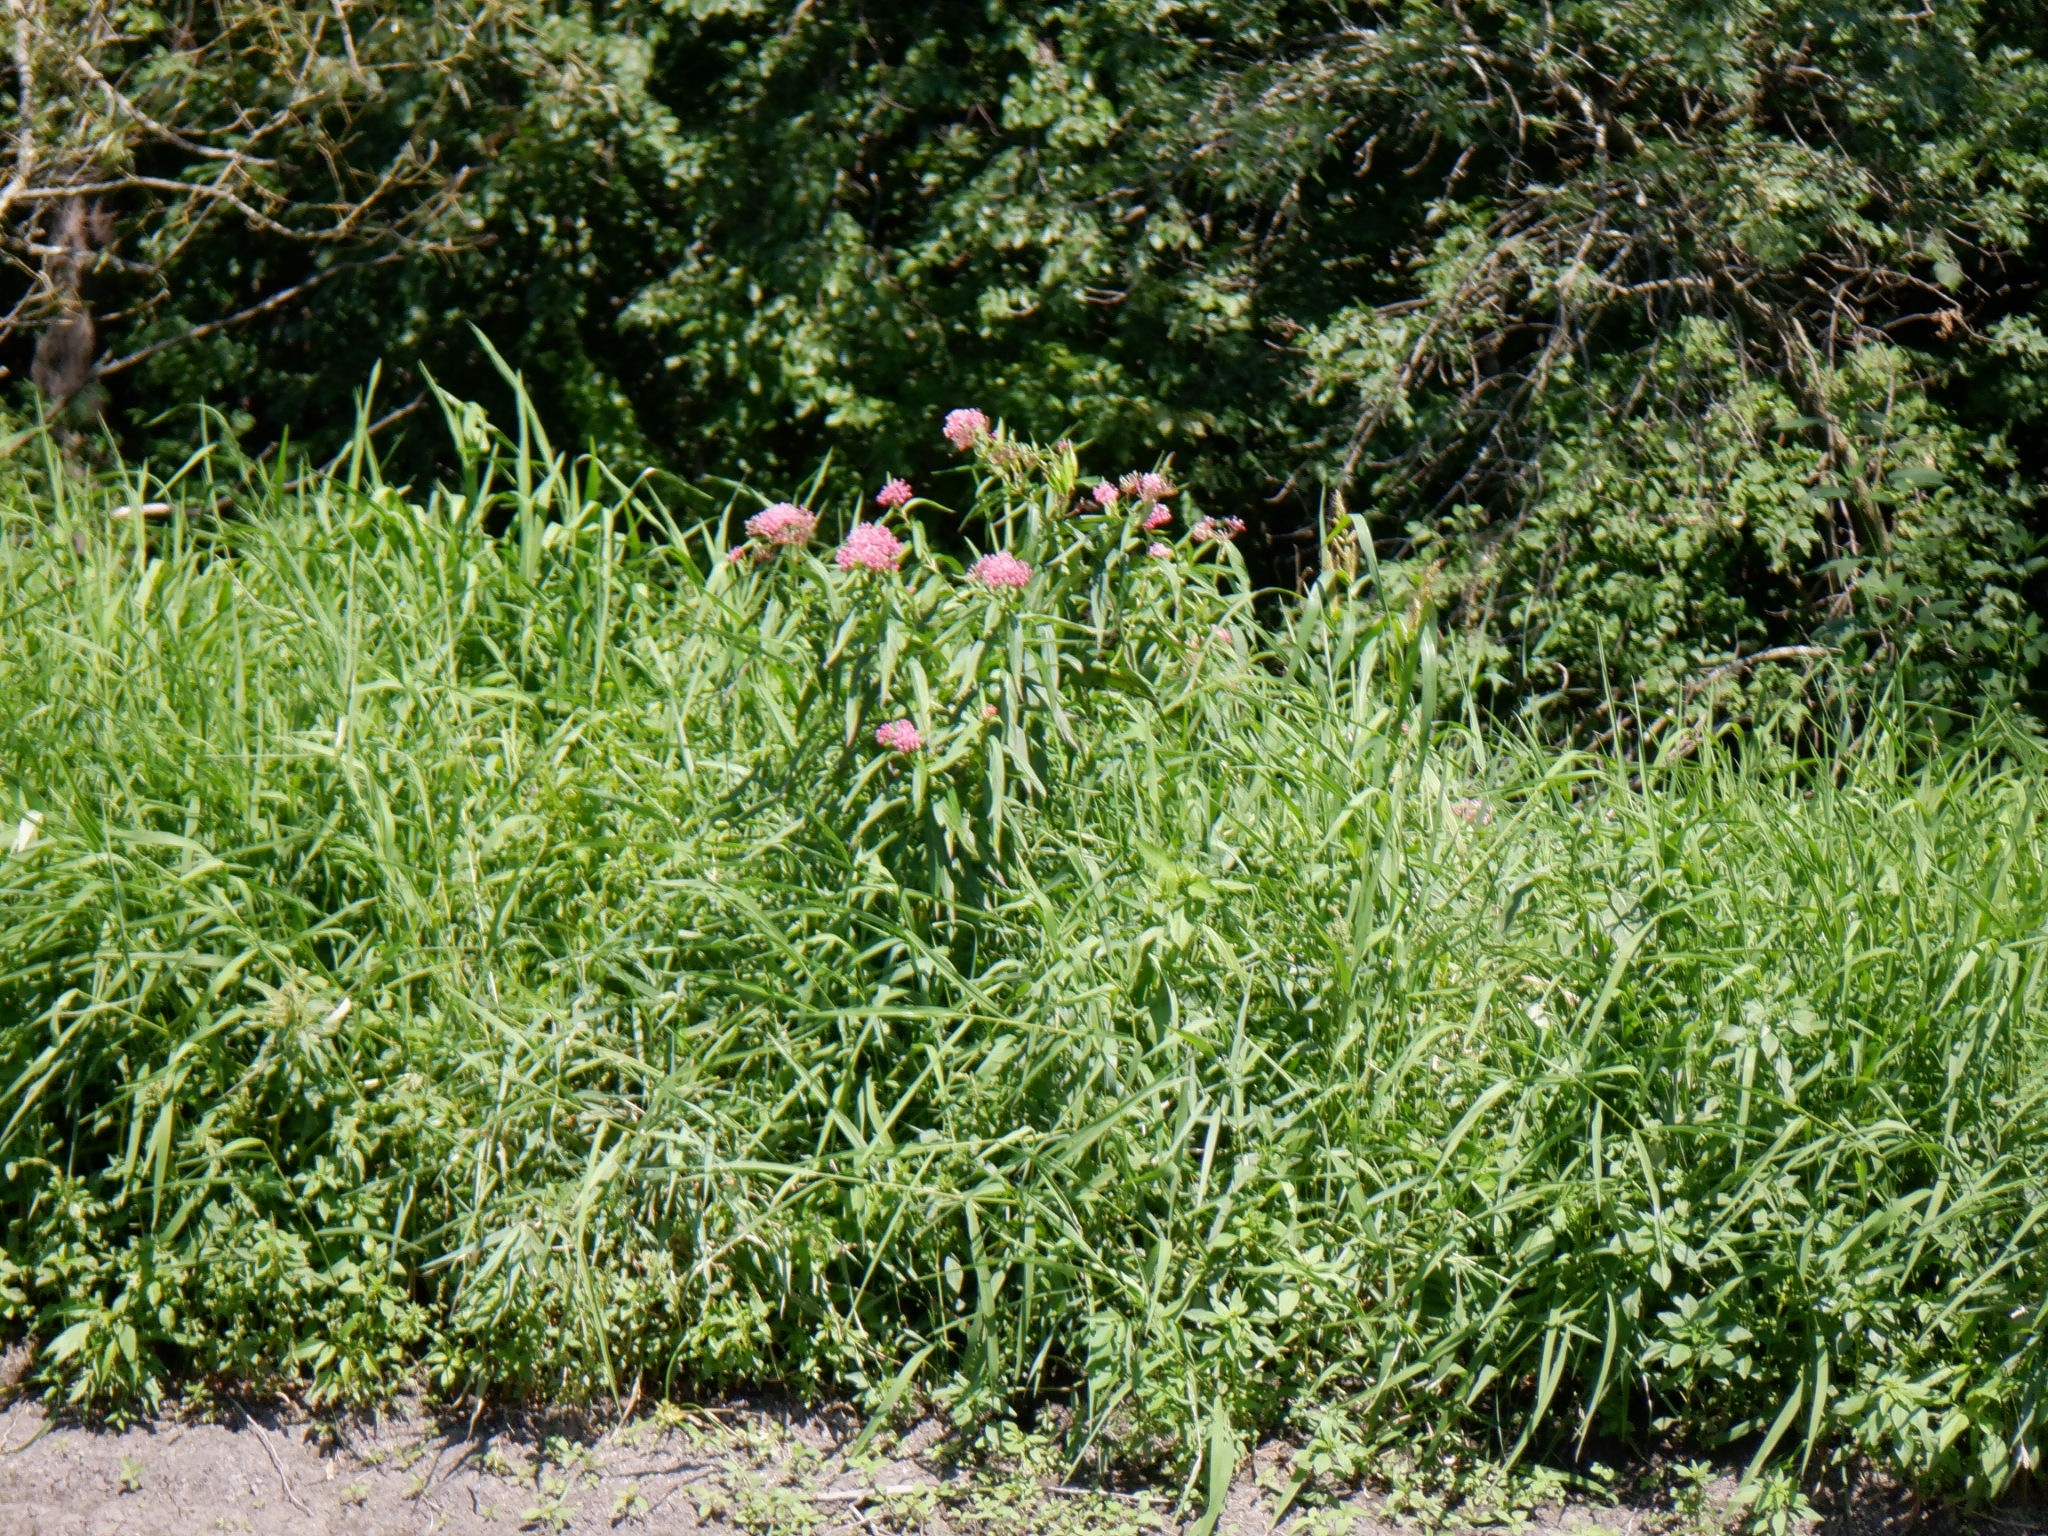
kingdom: Plantae
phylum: Tracheophyta
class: Magnoliopsida
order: Gentianales
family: Apocynaceae
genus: Asclepias
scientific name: Asclepias incarnata
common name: Swamp milkweed
